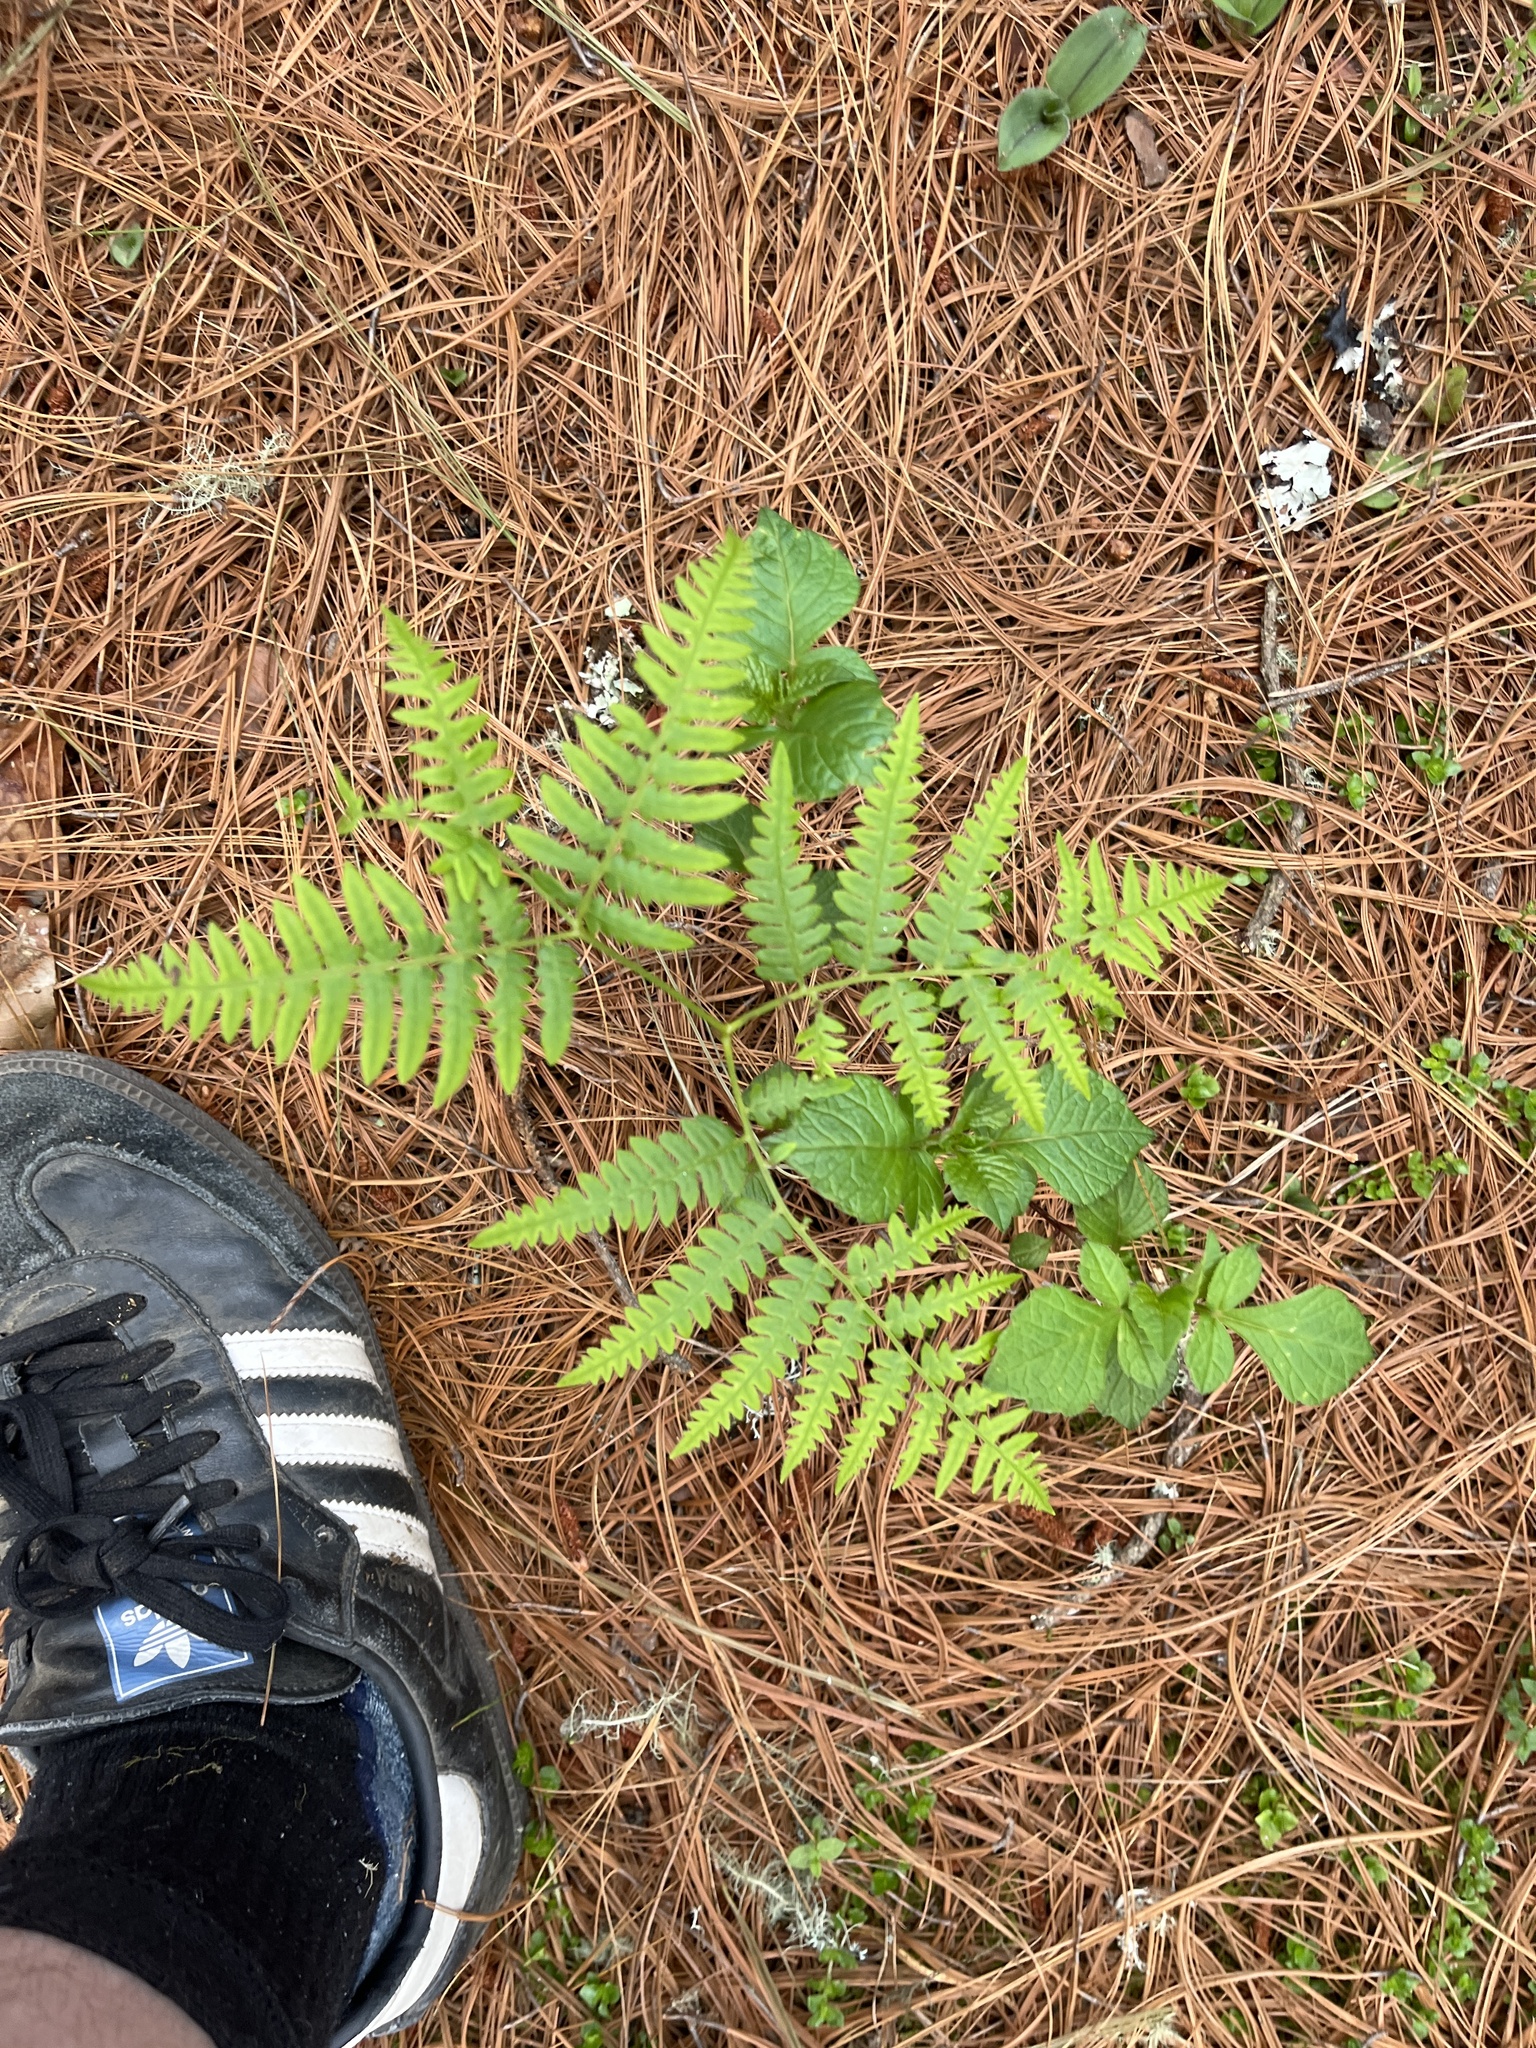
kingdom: Plantae
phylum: Tracheophyta
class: Polypodiopsida
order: Polypodiales
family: Dennstaedtiaceae
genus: Pteridium
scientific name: Pteridium aquilinum
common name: Bracken
